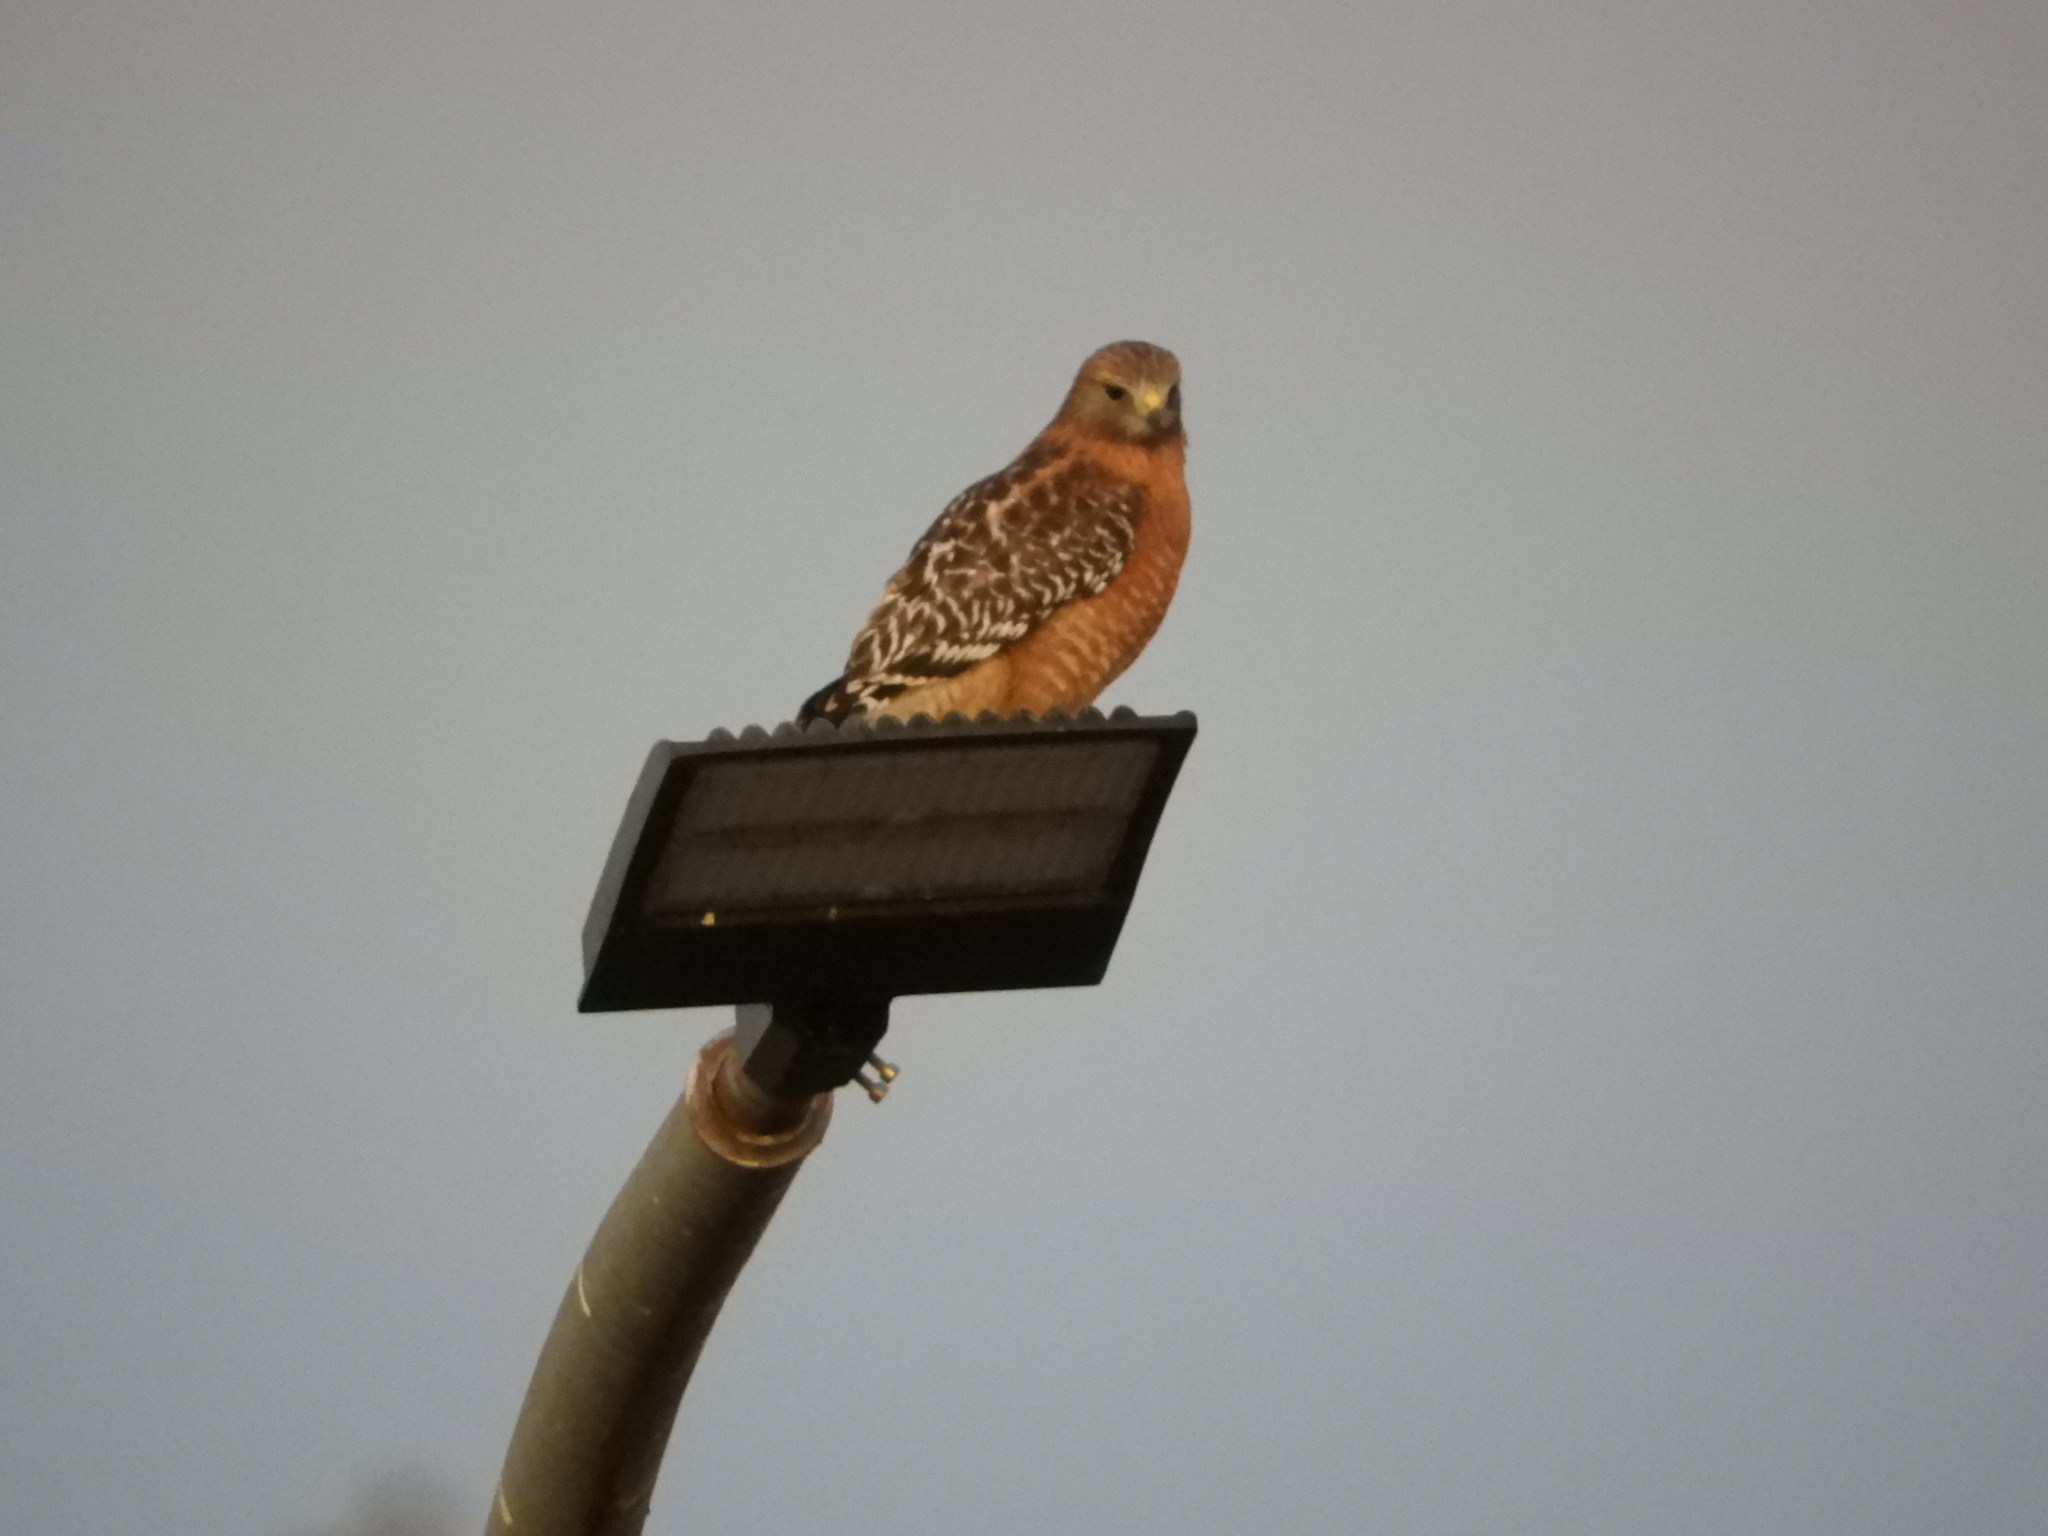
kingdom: Animalia
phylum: Chordata
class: Aves
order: Accipitriformes
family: Accipitridae
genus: Buteo
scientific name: Buteo lineatus
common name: Red-shouldered hawk
